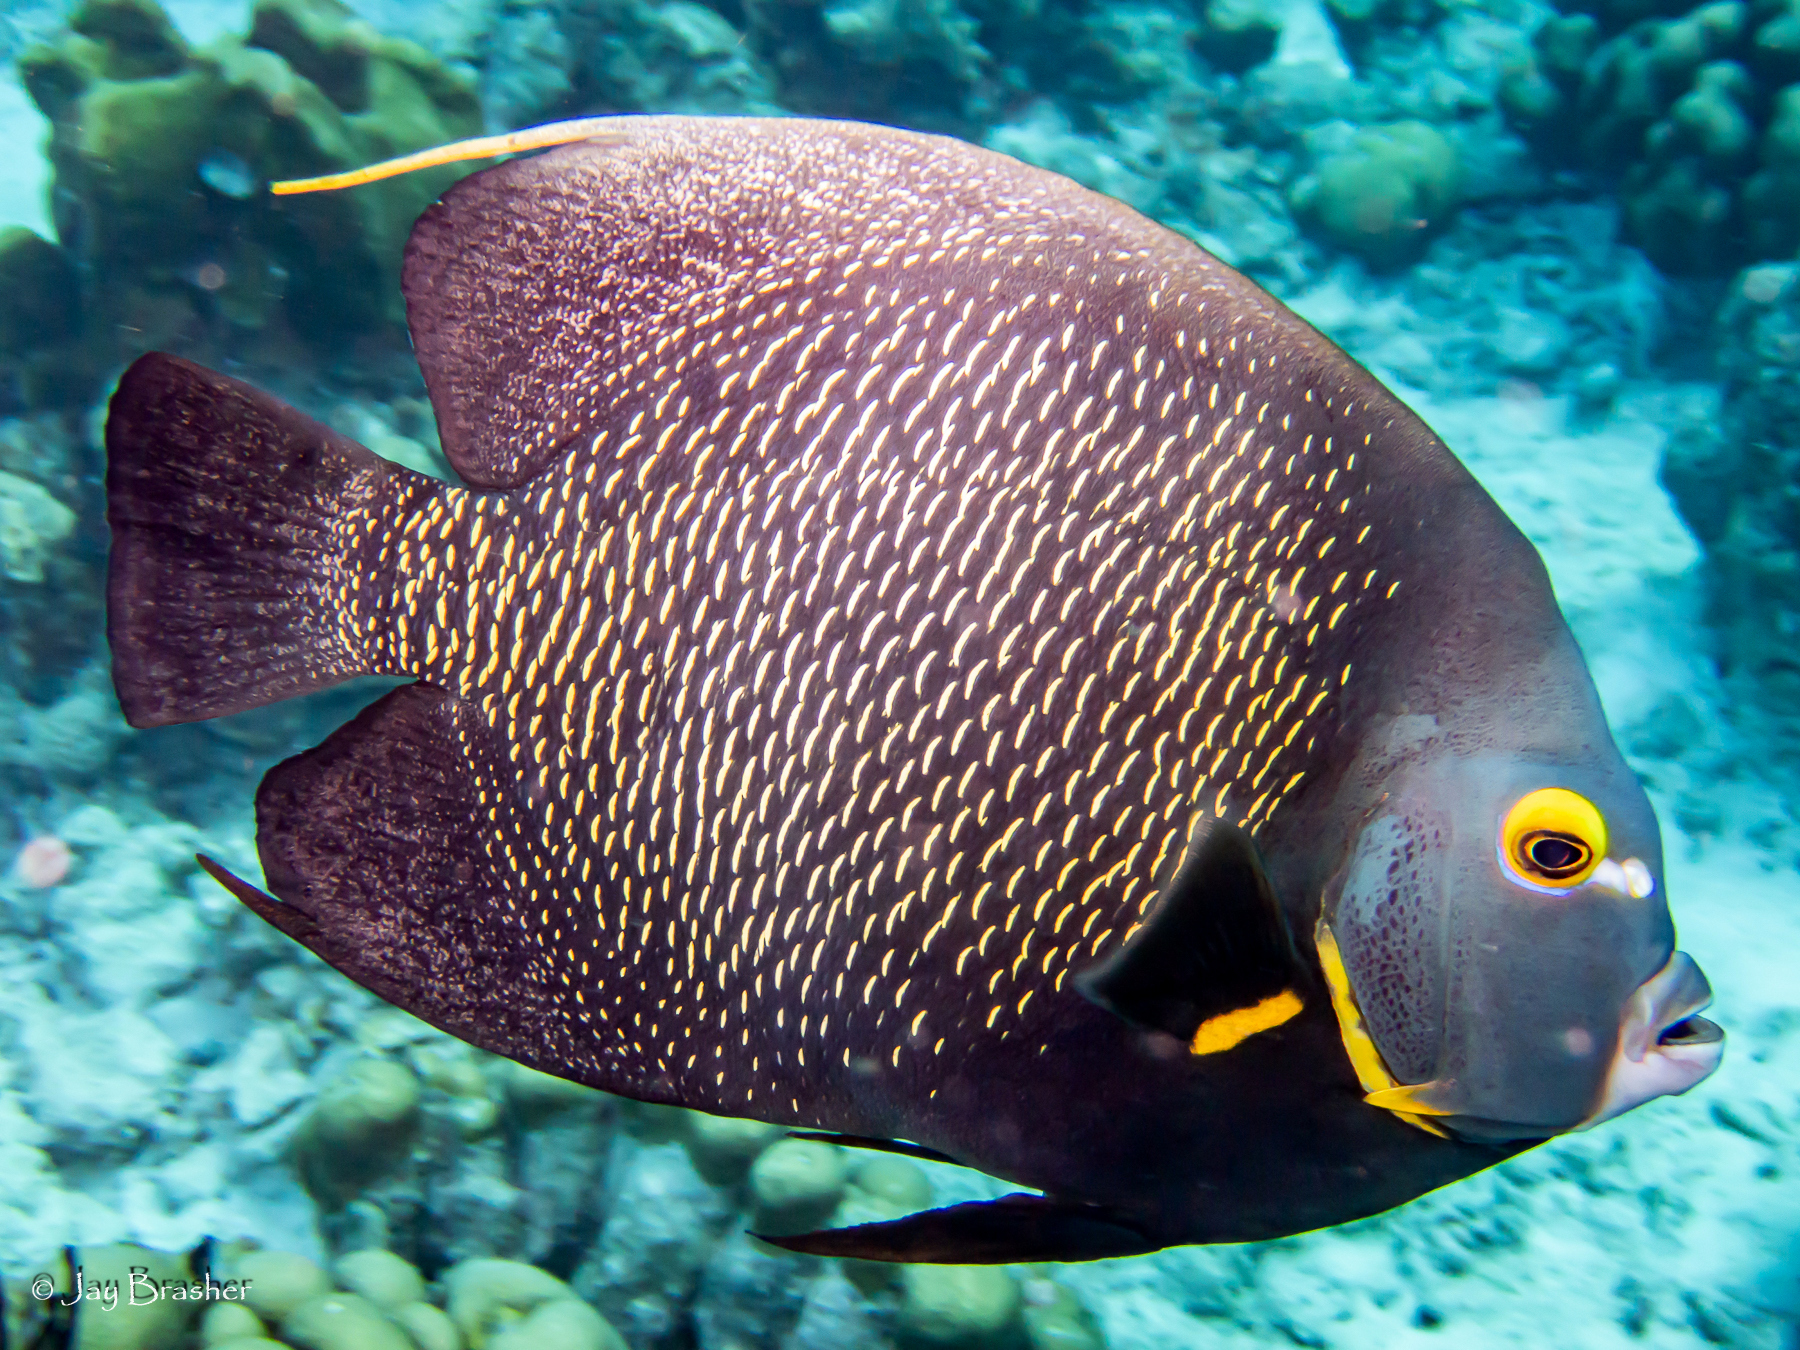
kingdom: Animalia
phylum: Chordata
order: Perciformes
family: Pomacanthidae
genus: Pomacanthus
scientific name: Pomacanthus paru
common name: French angelfish
